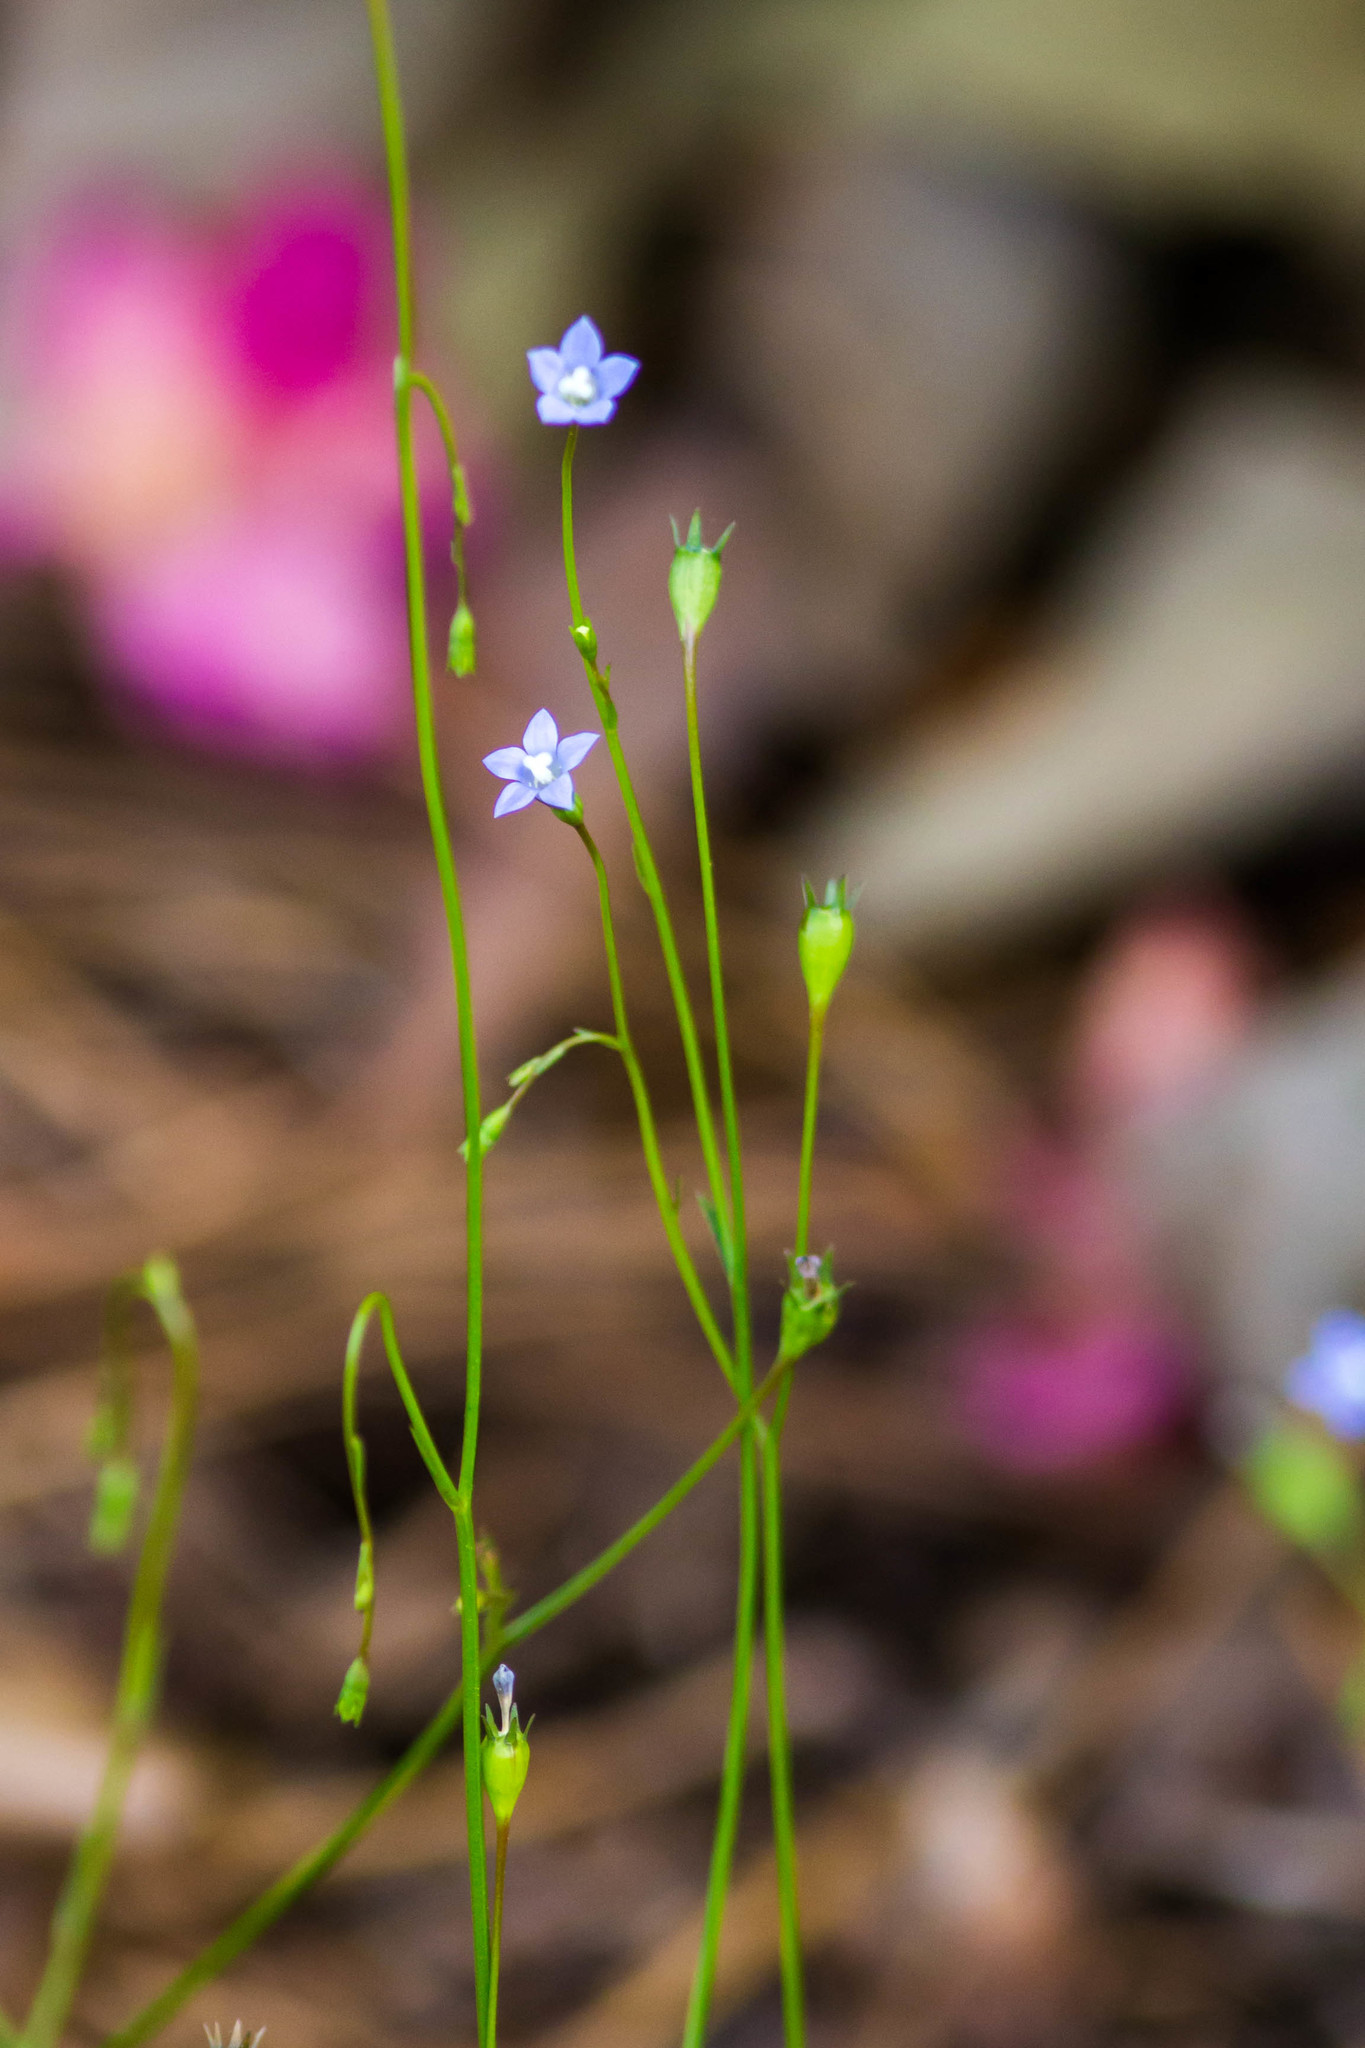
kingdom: Plantae
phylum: Tracheophyta
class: Magnoliopsida
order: Asterales
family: Campanulaceae
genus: Wahlenbergia
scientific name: Wahlenbergia marginata
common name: Southern rockbell
